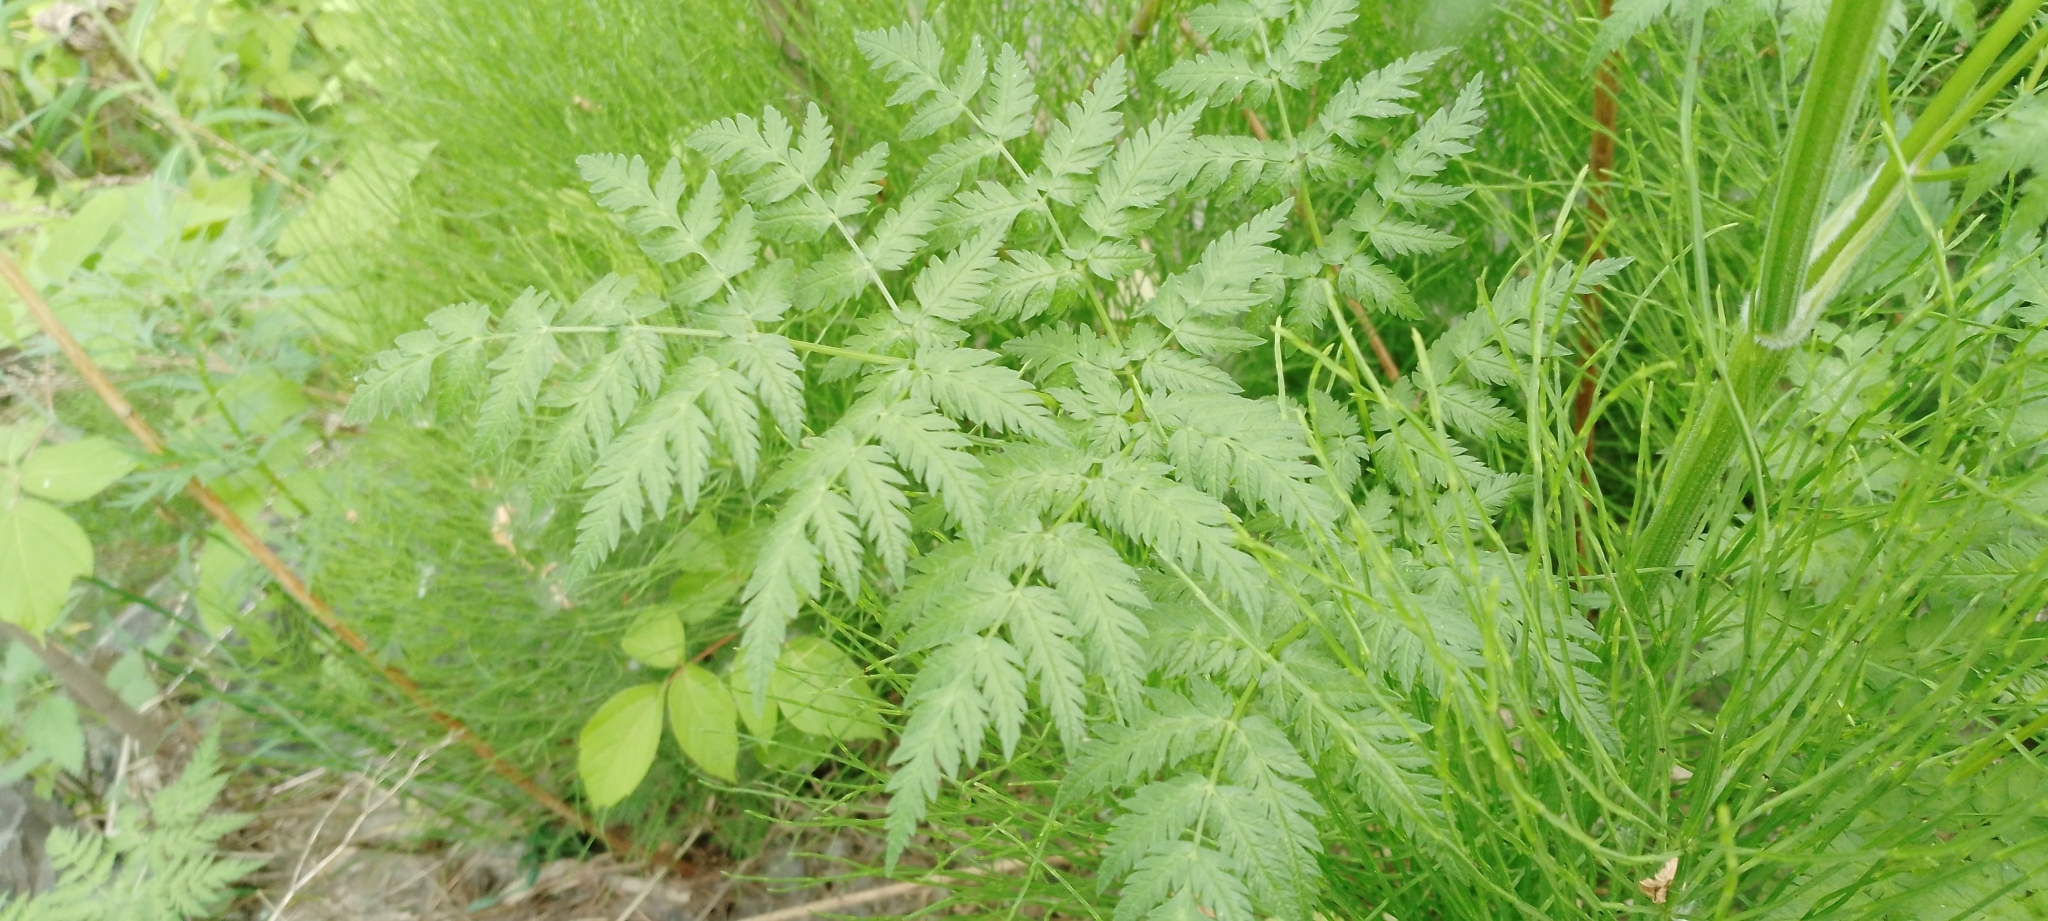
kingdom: Plantae
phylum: Tracheophyta
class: Magnoliopsida
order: Apiales
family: Apiaceae
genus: Anthriscus
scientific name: Anthriscus sylvestris
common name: Cow parsley
